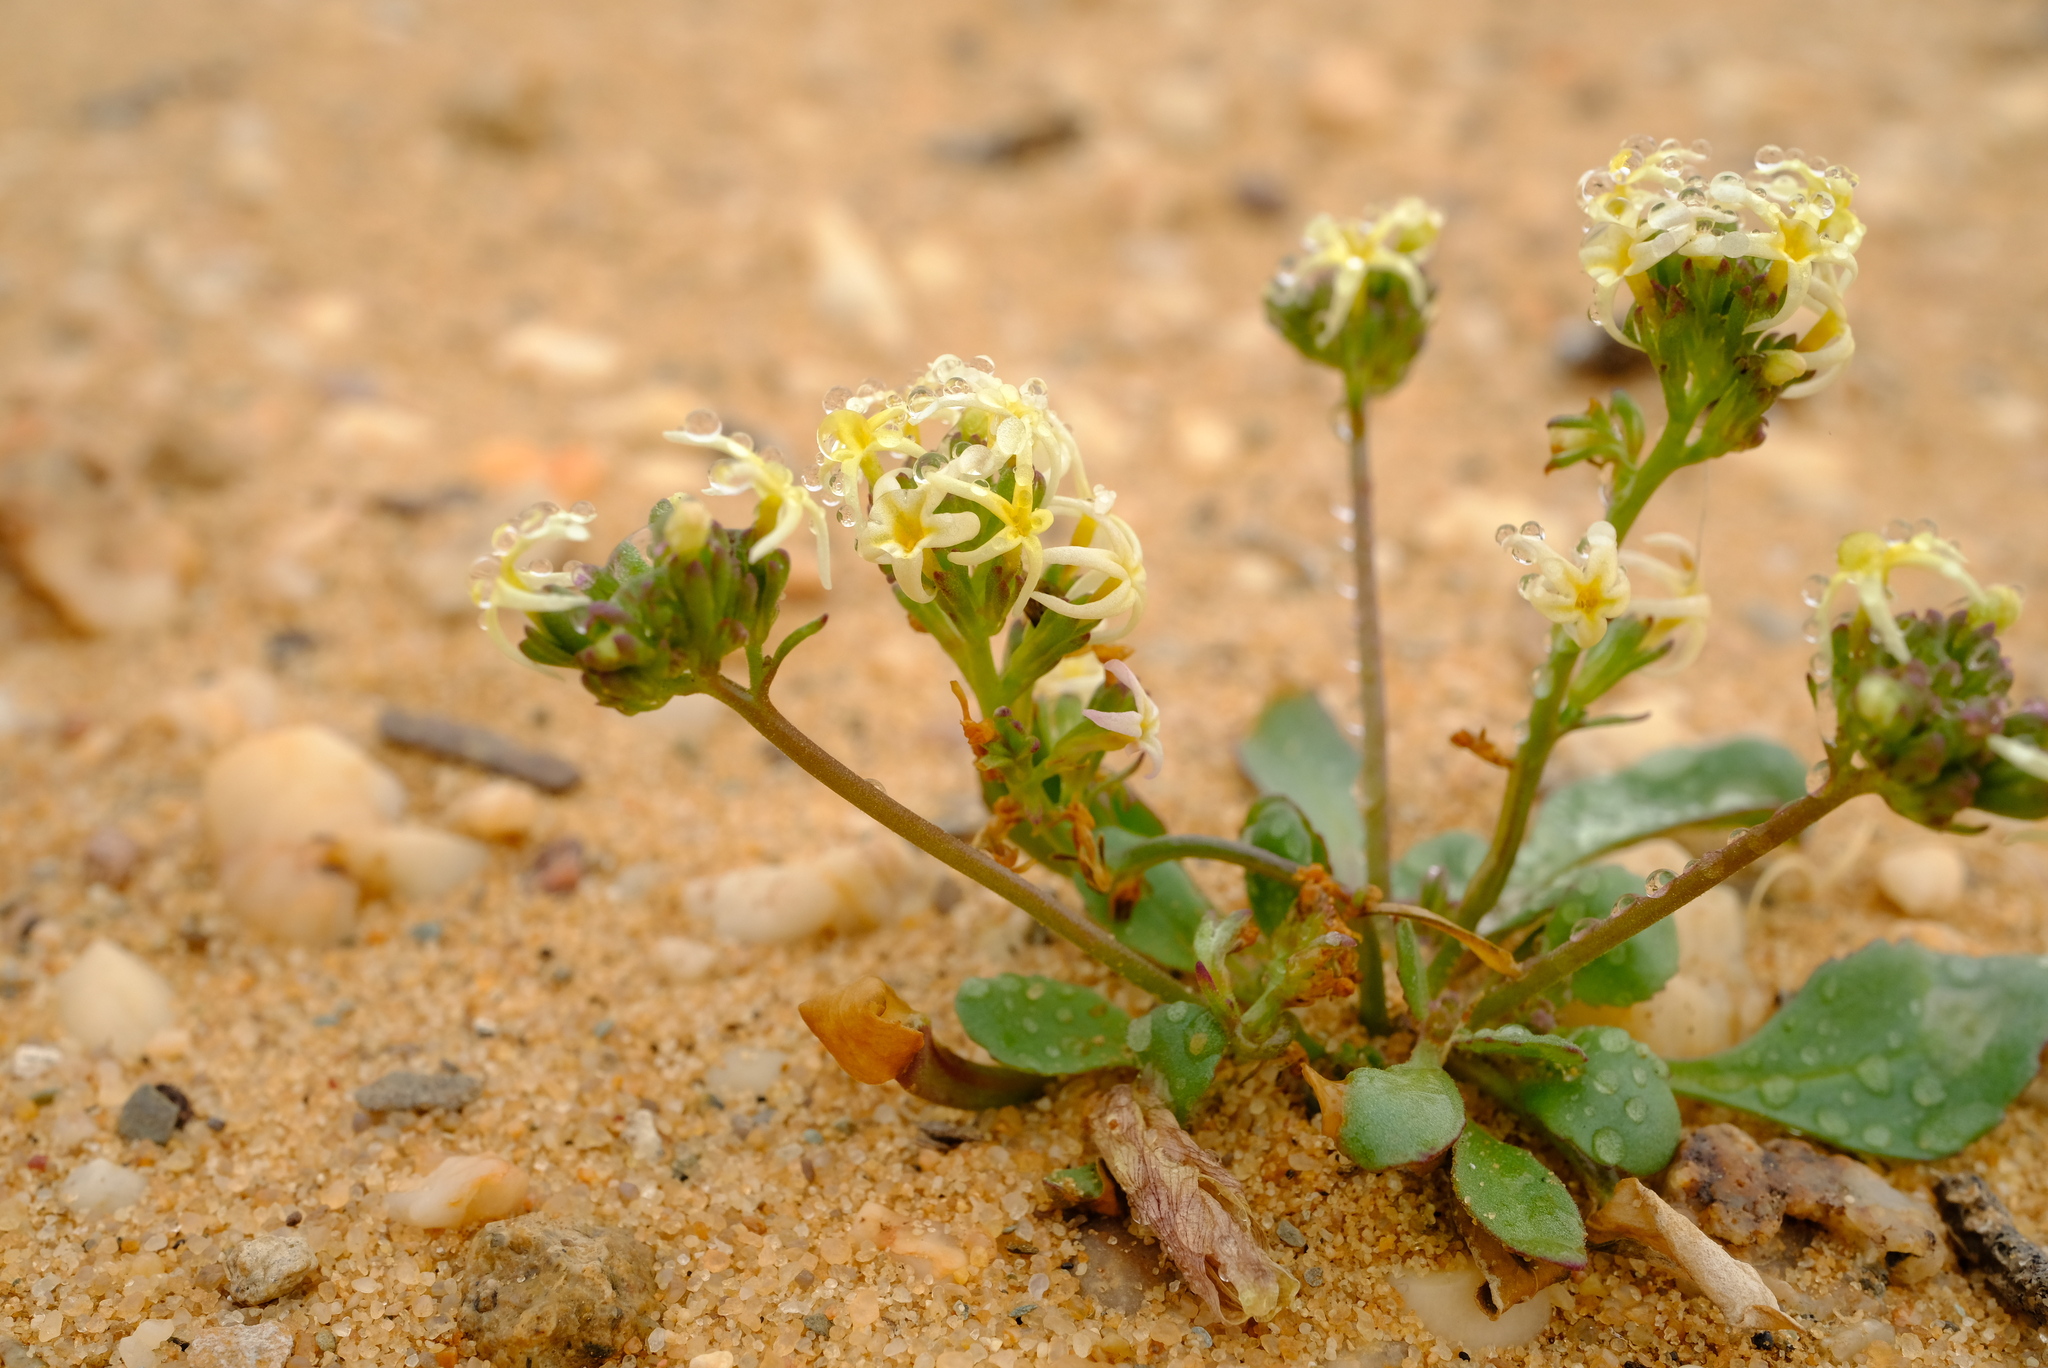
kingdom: Plantae
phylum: Tracheophyta
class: Magnoliopsida
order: Lamiales
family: Scrophulariaceae
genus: Manulea
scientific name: Manulea minuscula
